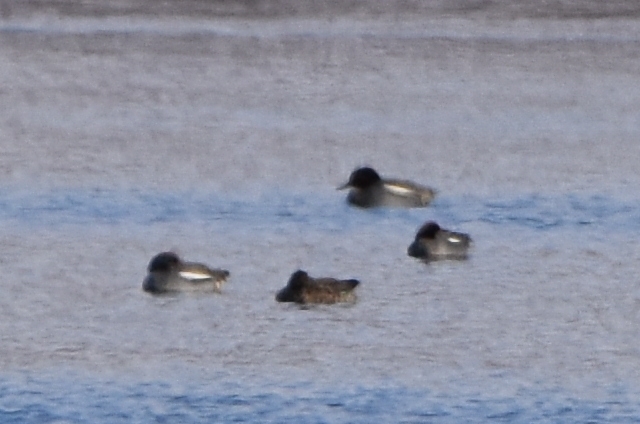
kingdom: Animalia
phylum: Chordata
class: Aves
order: Anseriformes
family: Anatidae
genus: Anas
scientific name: Anas crecca
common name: Eurasian teal
